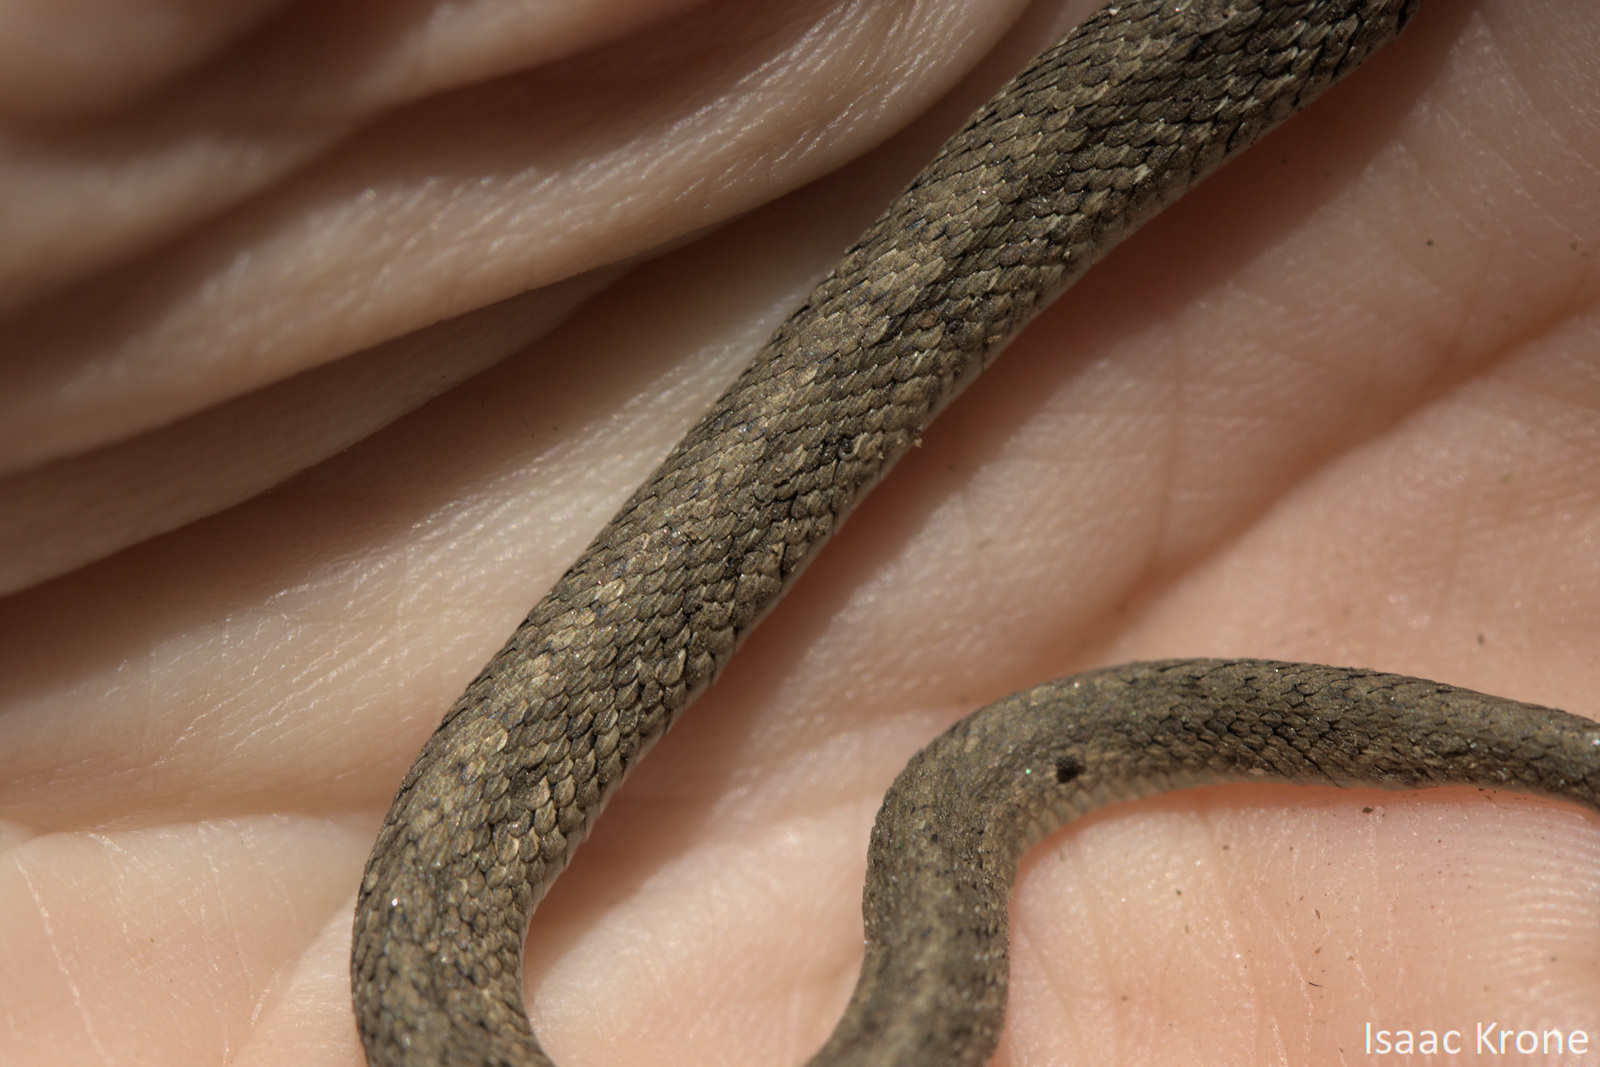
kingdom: Animalia
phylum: Chordata
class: Squamata
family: Colubridae
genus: Thamnophis
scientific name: Thamnophis sirtalis
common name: Common garter snake
